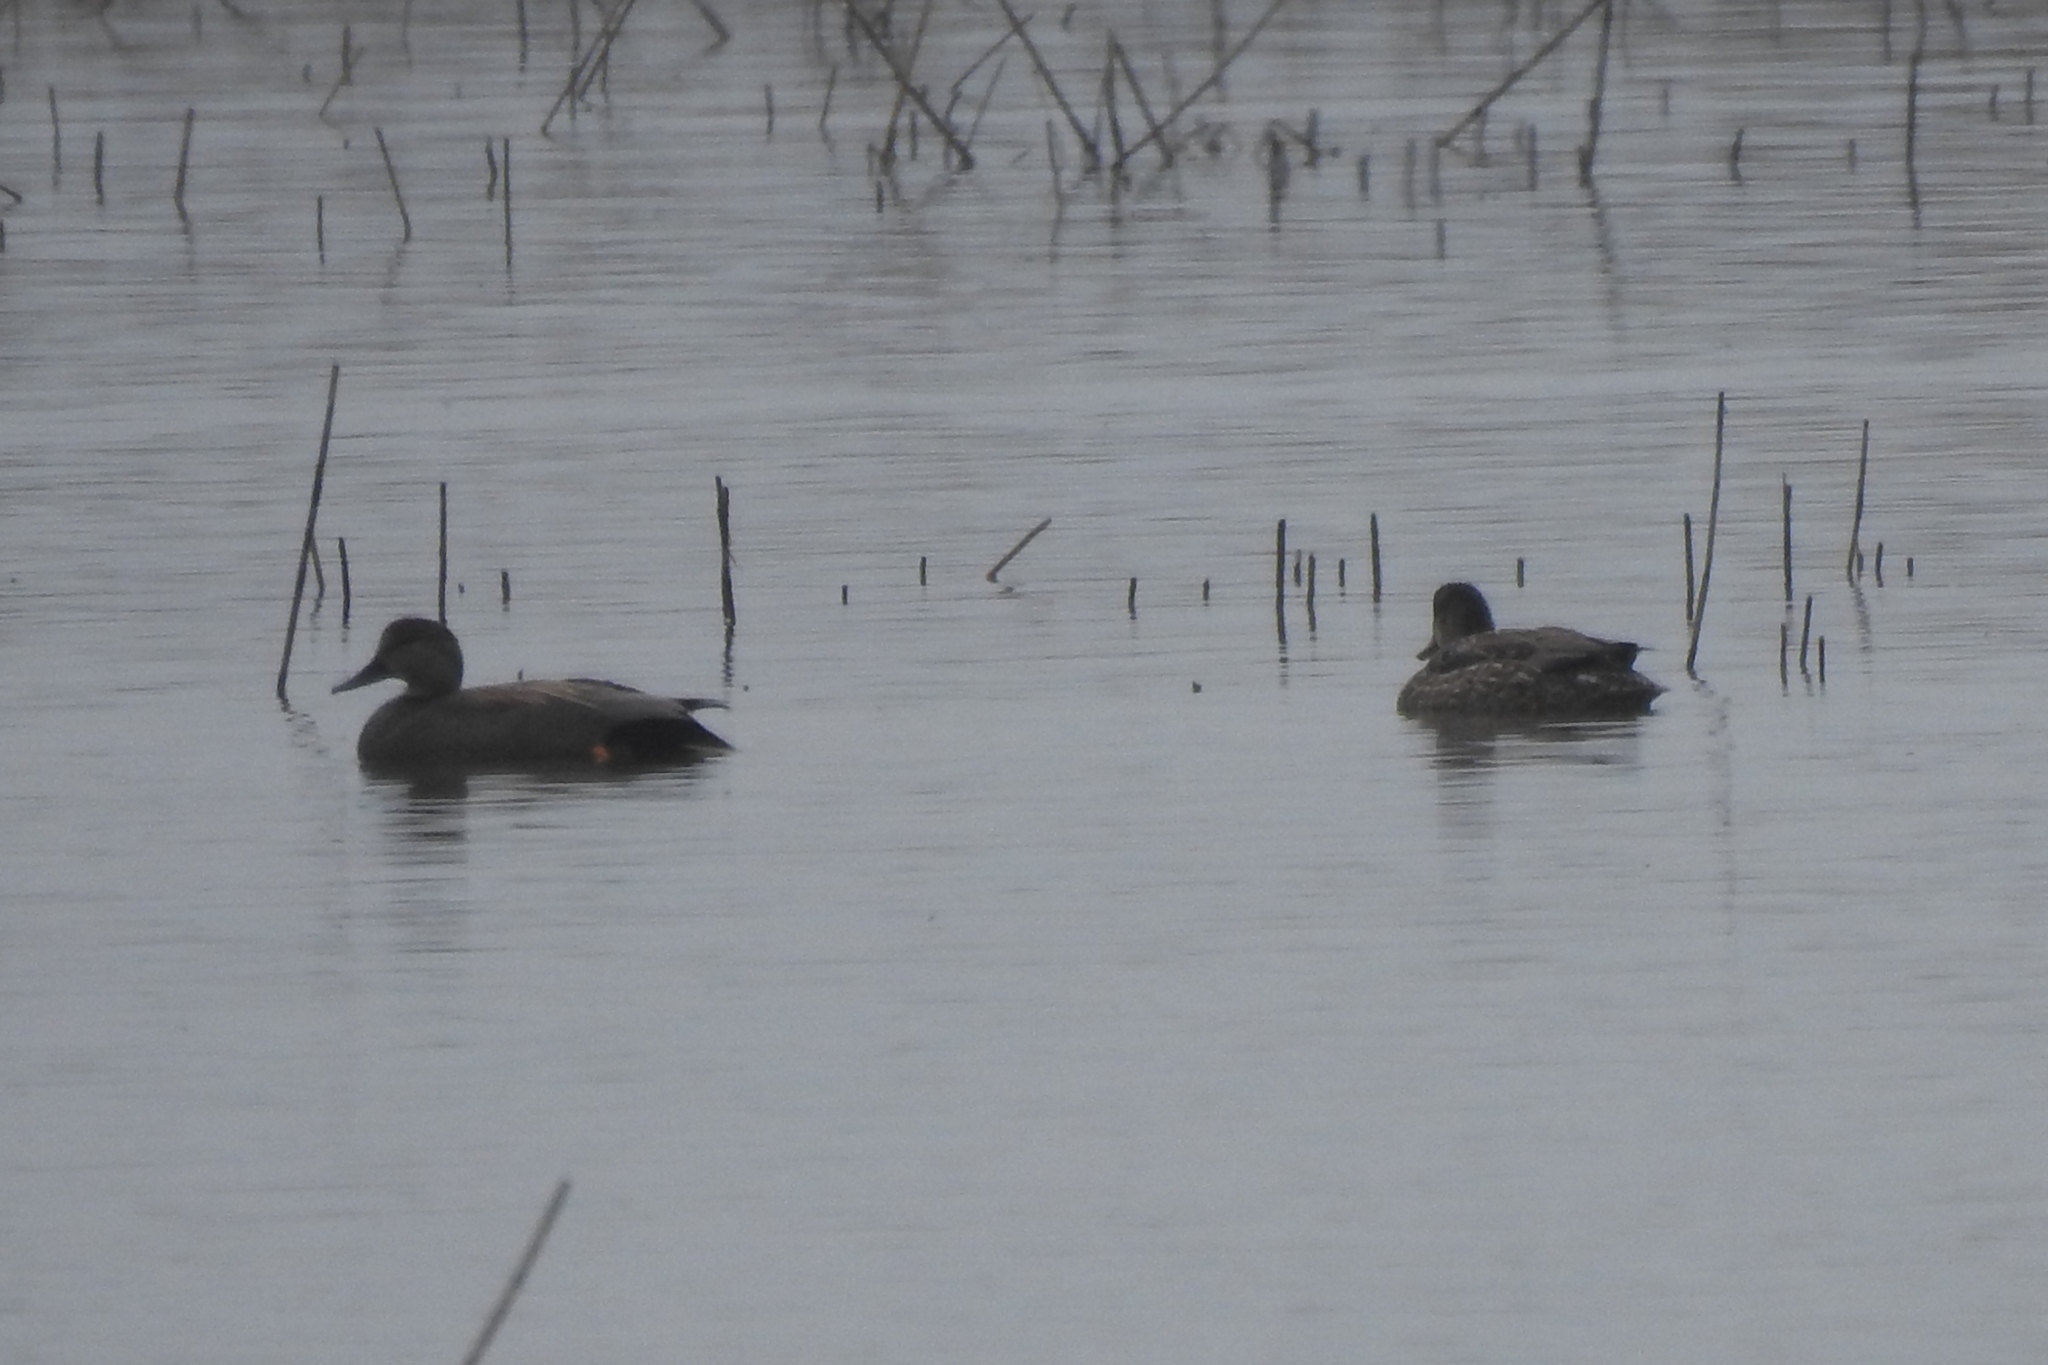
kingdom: Animalia
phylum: Chordata
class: Aves
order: Anseriformes
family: Anatidae
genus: Mareca
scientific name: Mareca strepera
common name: Gadwall
